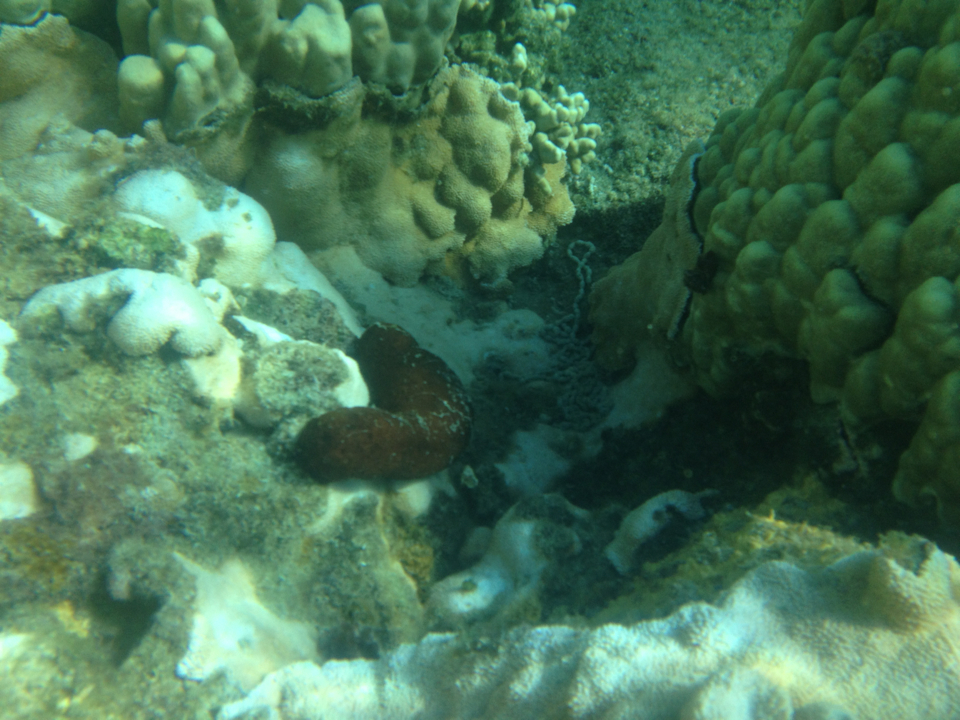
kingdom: Animalia
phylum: Echinodermata
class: Holothuroidea
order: Holothuriida
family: Holothuriidae
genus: Actinopyga
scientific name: Actinopyga obesa
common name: Plump sea cucumber
